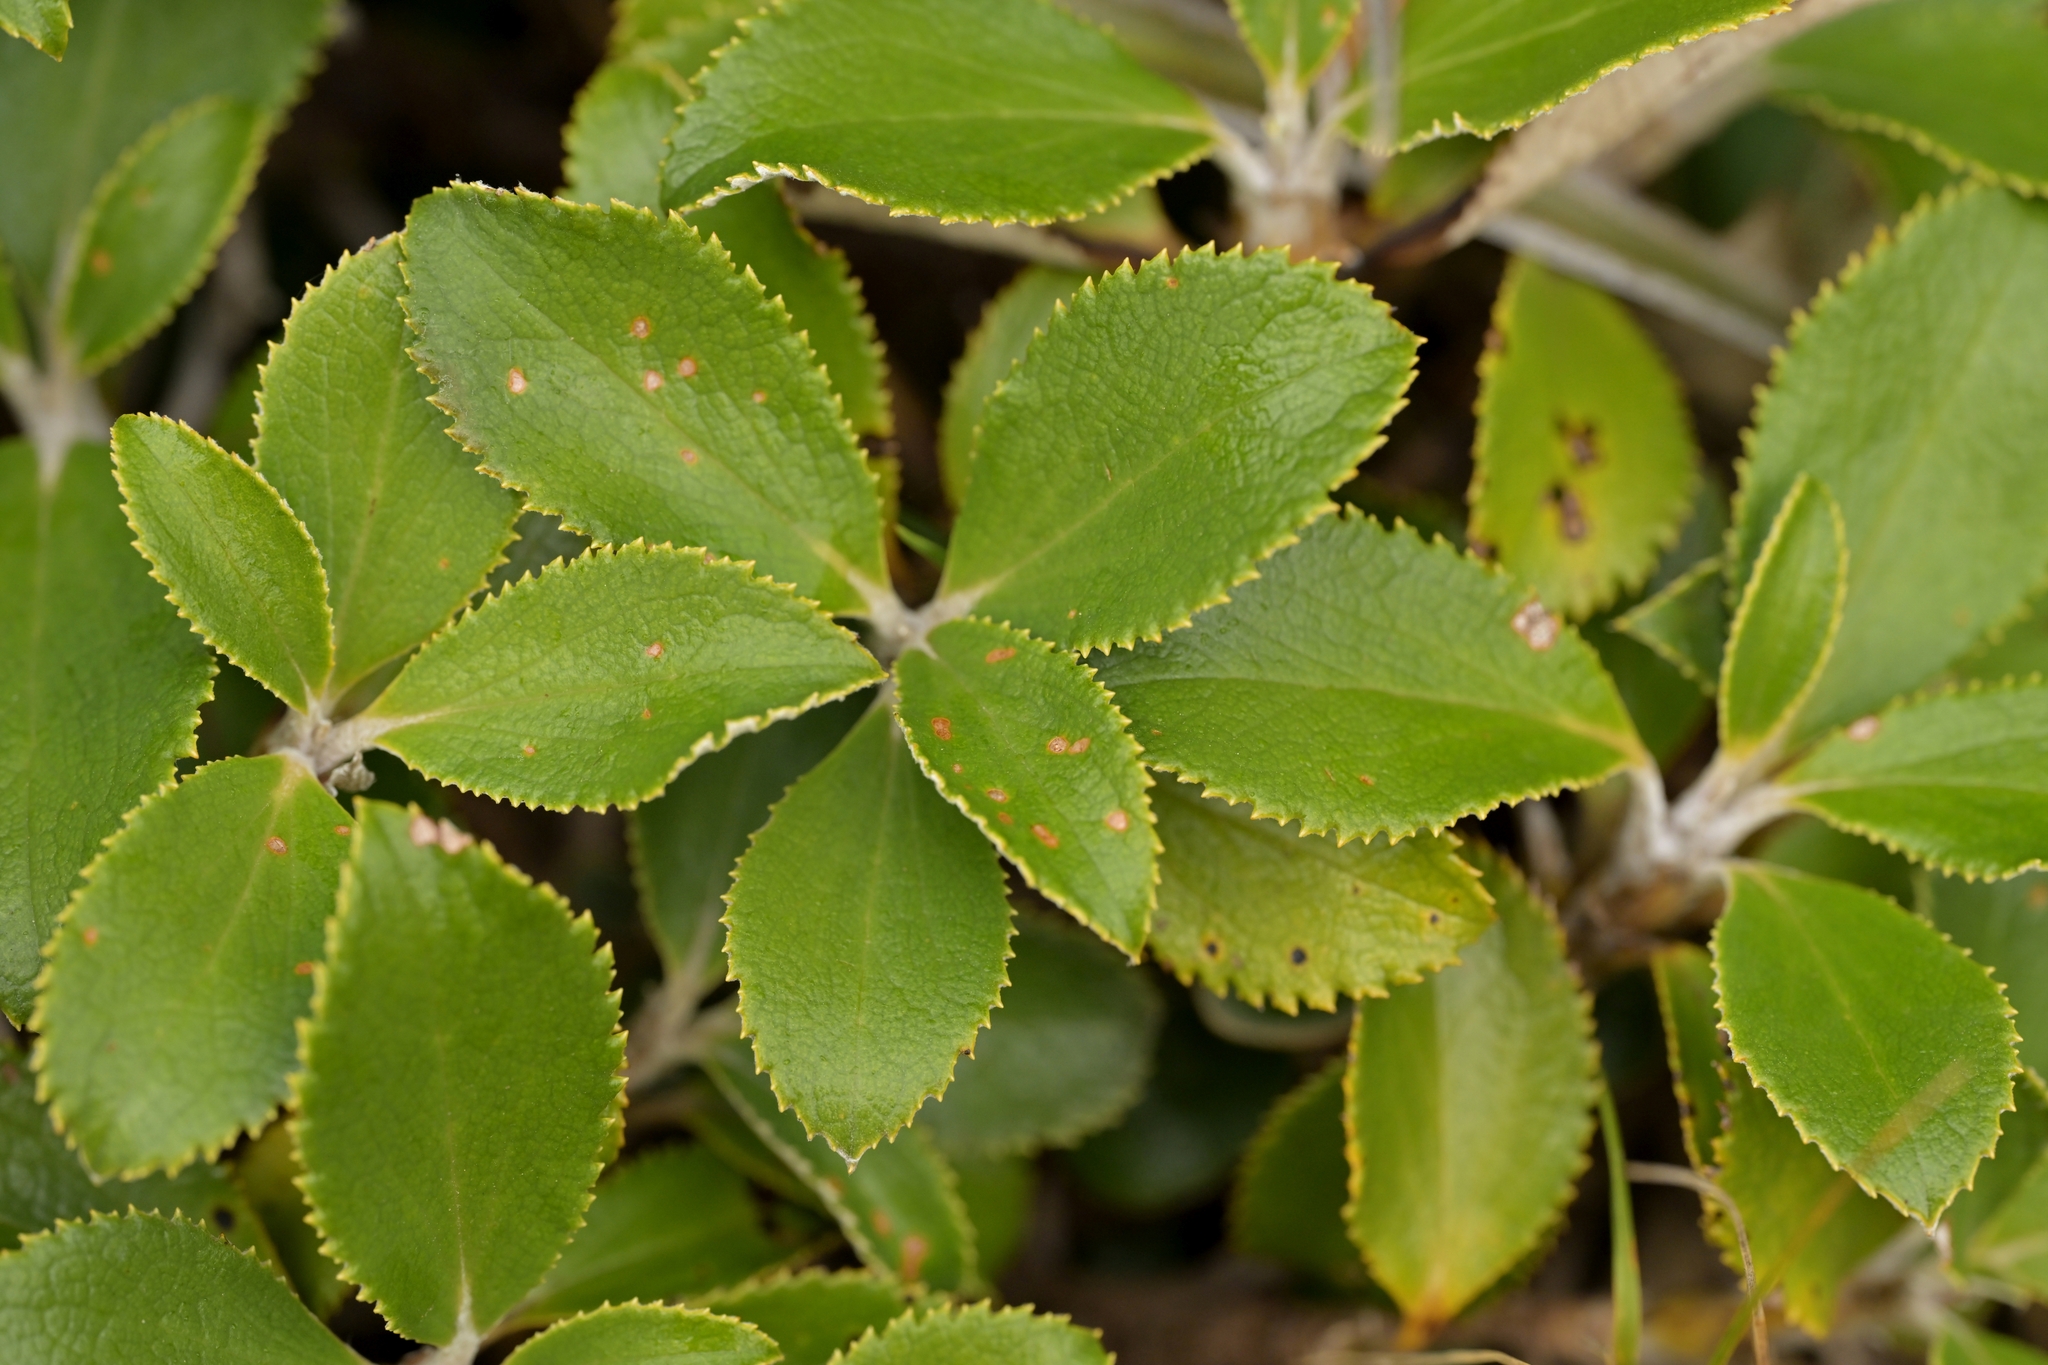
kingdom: Plantae
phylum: Tracheophyta
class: Magnoliopsida
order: Asterales
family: Asteraceae
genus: Macrolearia
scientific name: Macrolearia colensoi
